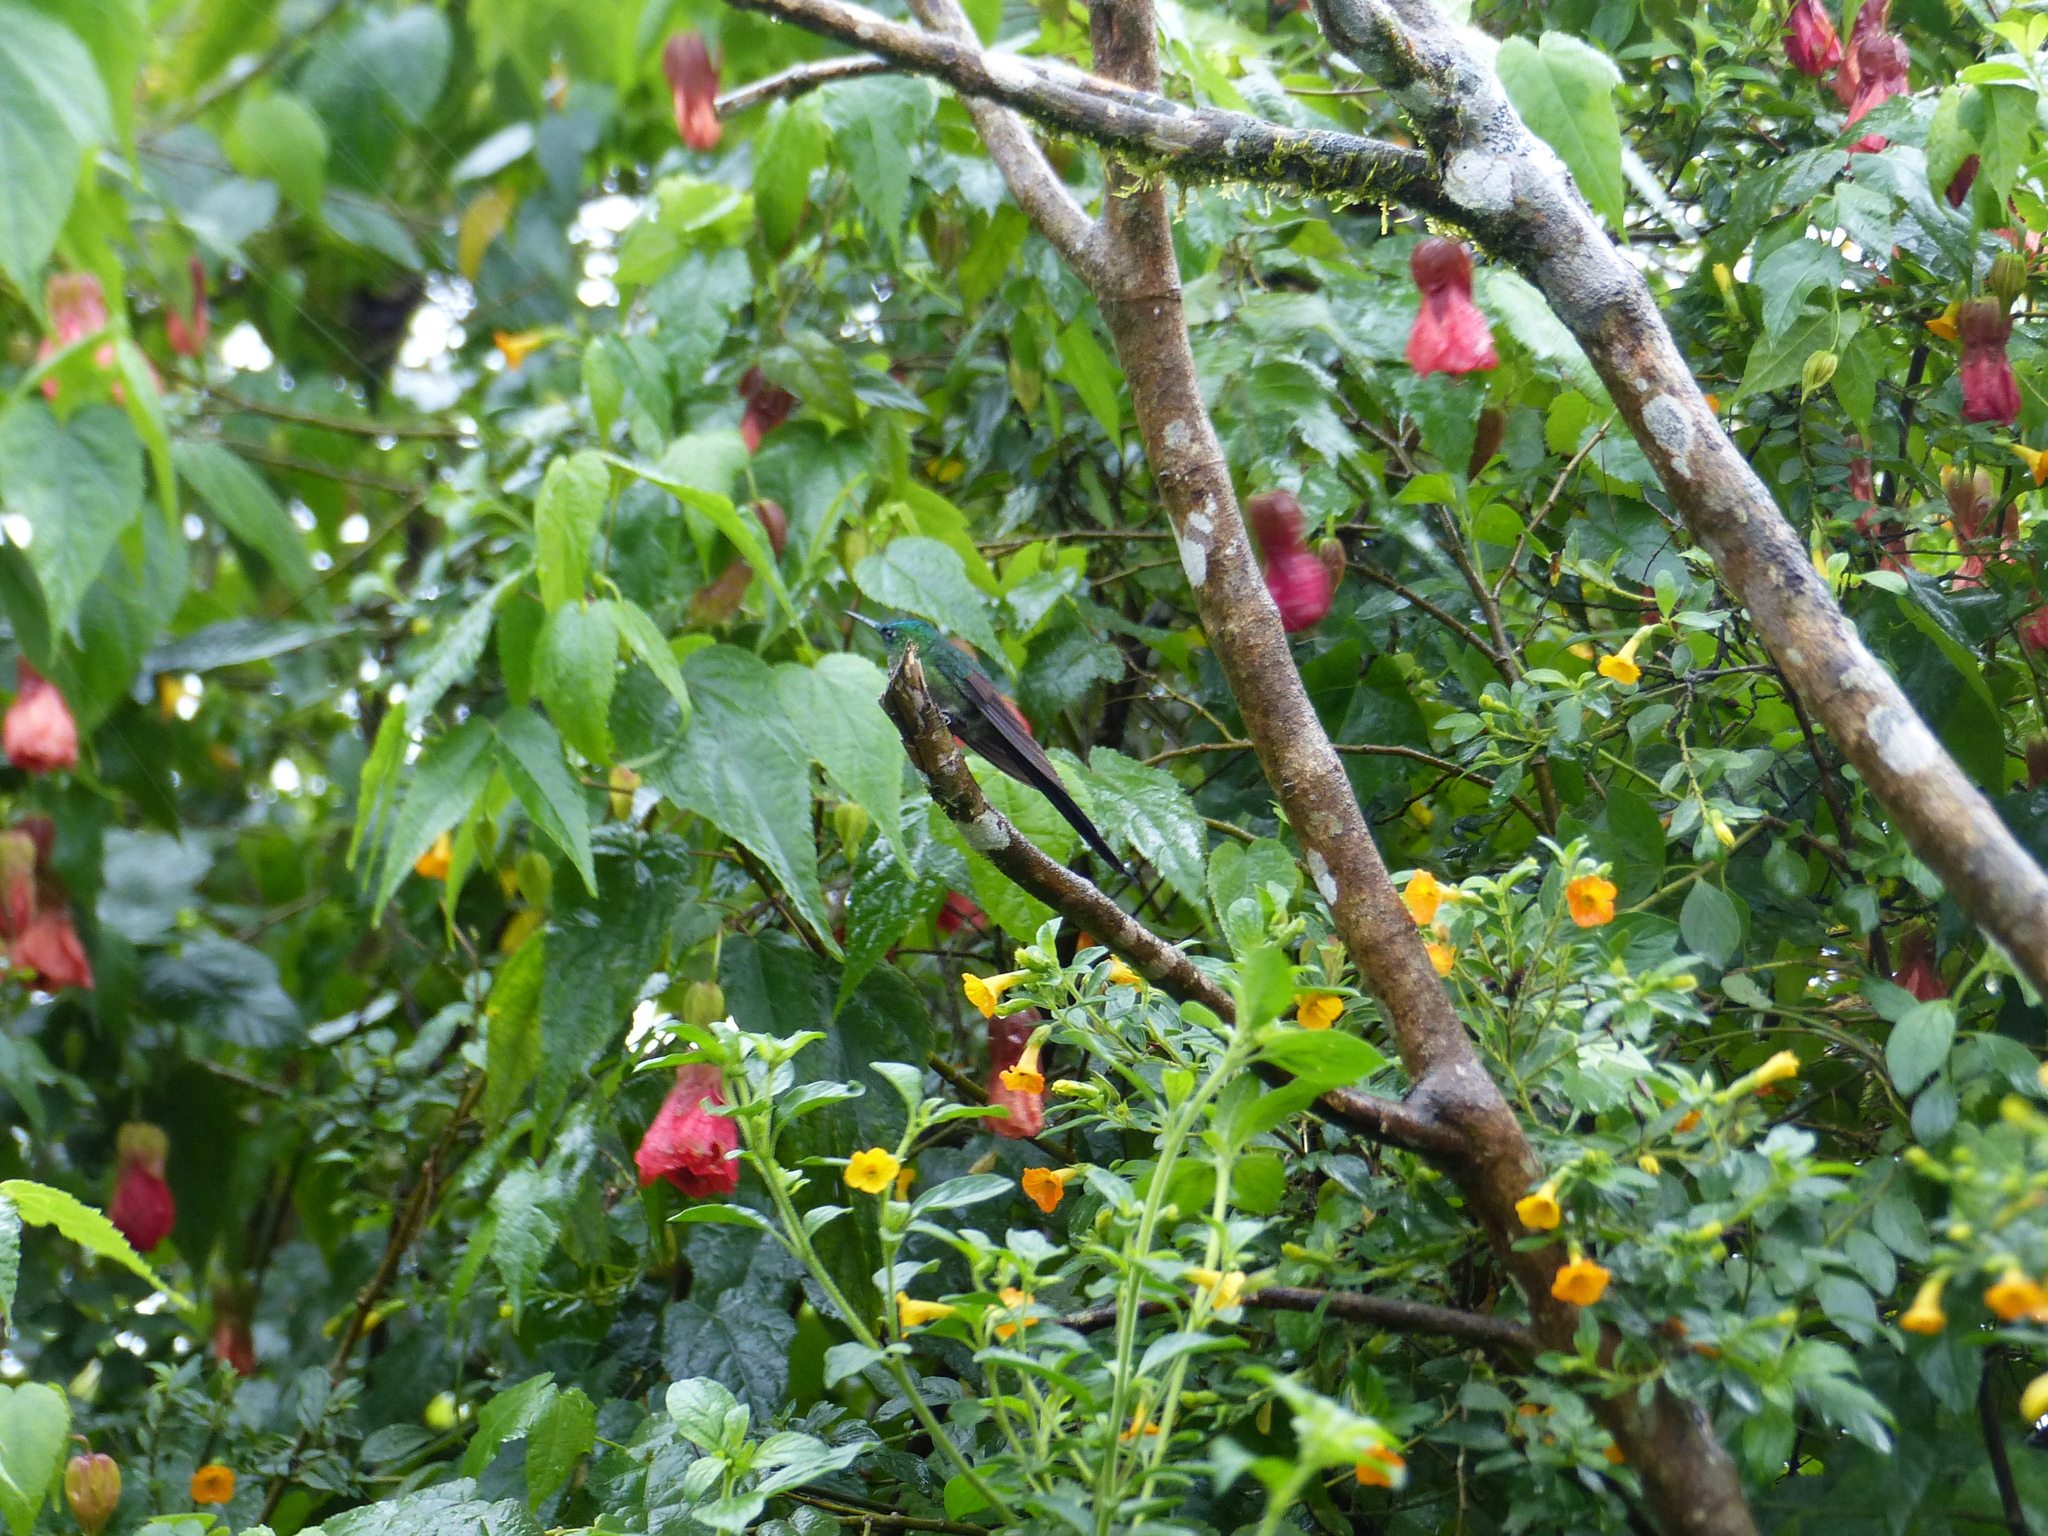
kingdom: Animalia
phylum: Chordata
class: Aves
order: Apodiformes
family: Trochilidae
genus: Aglaiocercus
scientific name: Aglaiocercus kingii
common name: Long-tailed sylph
